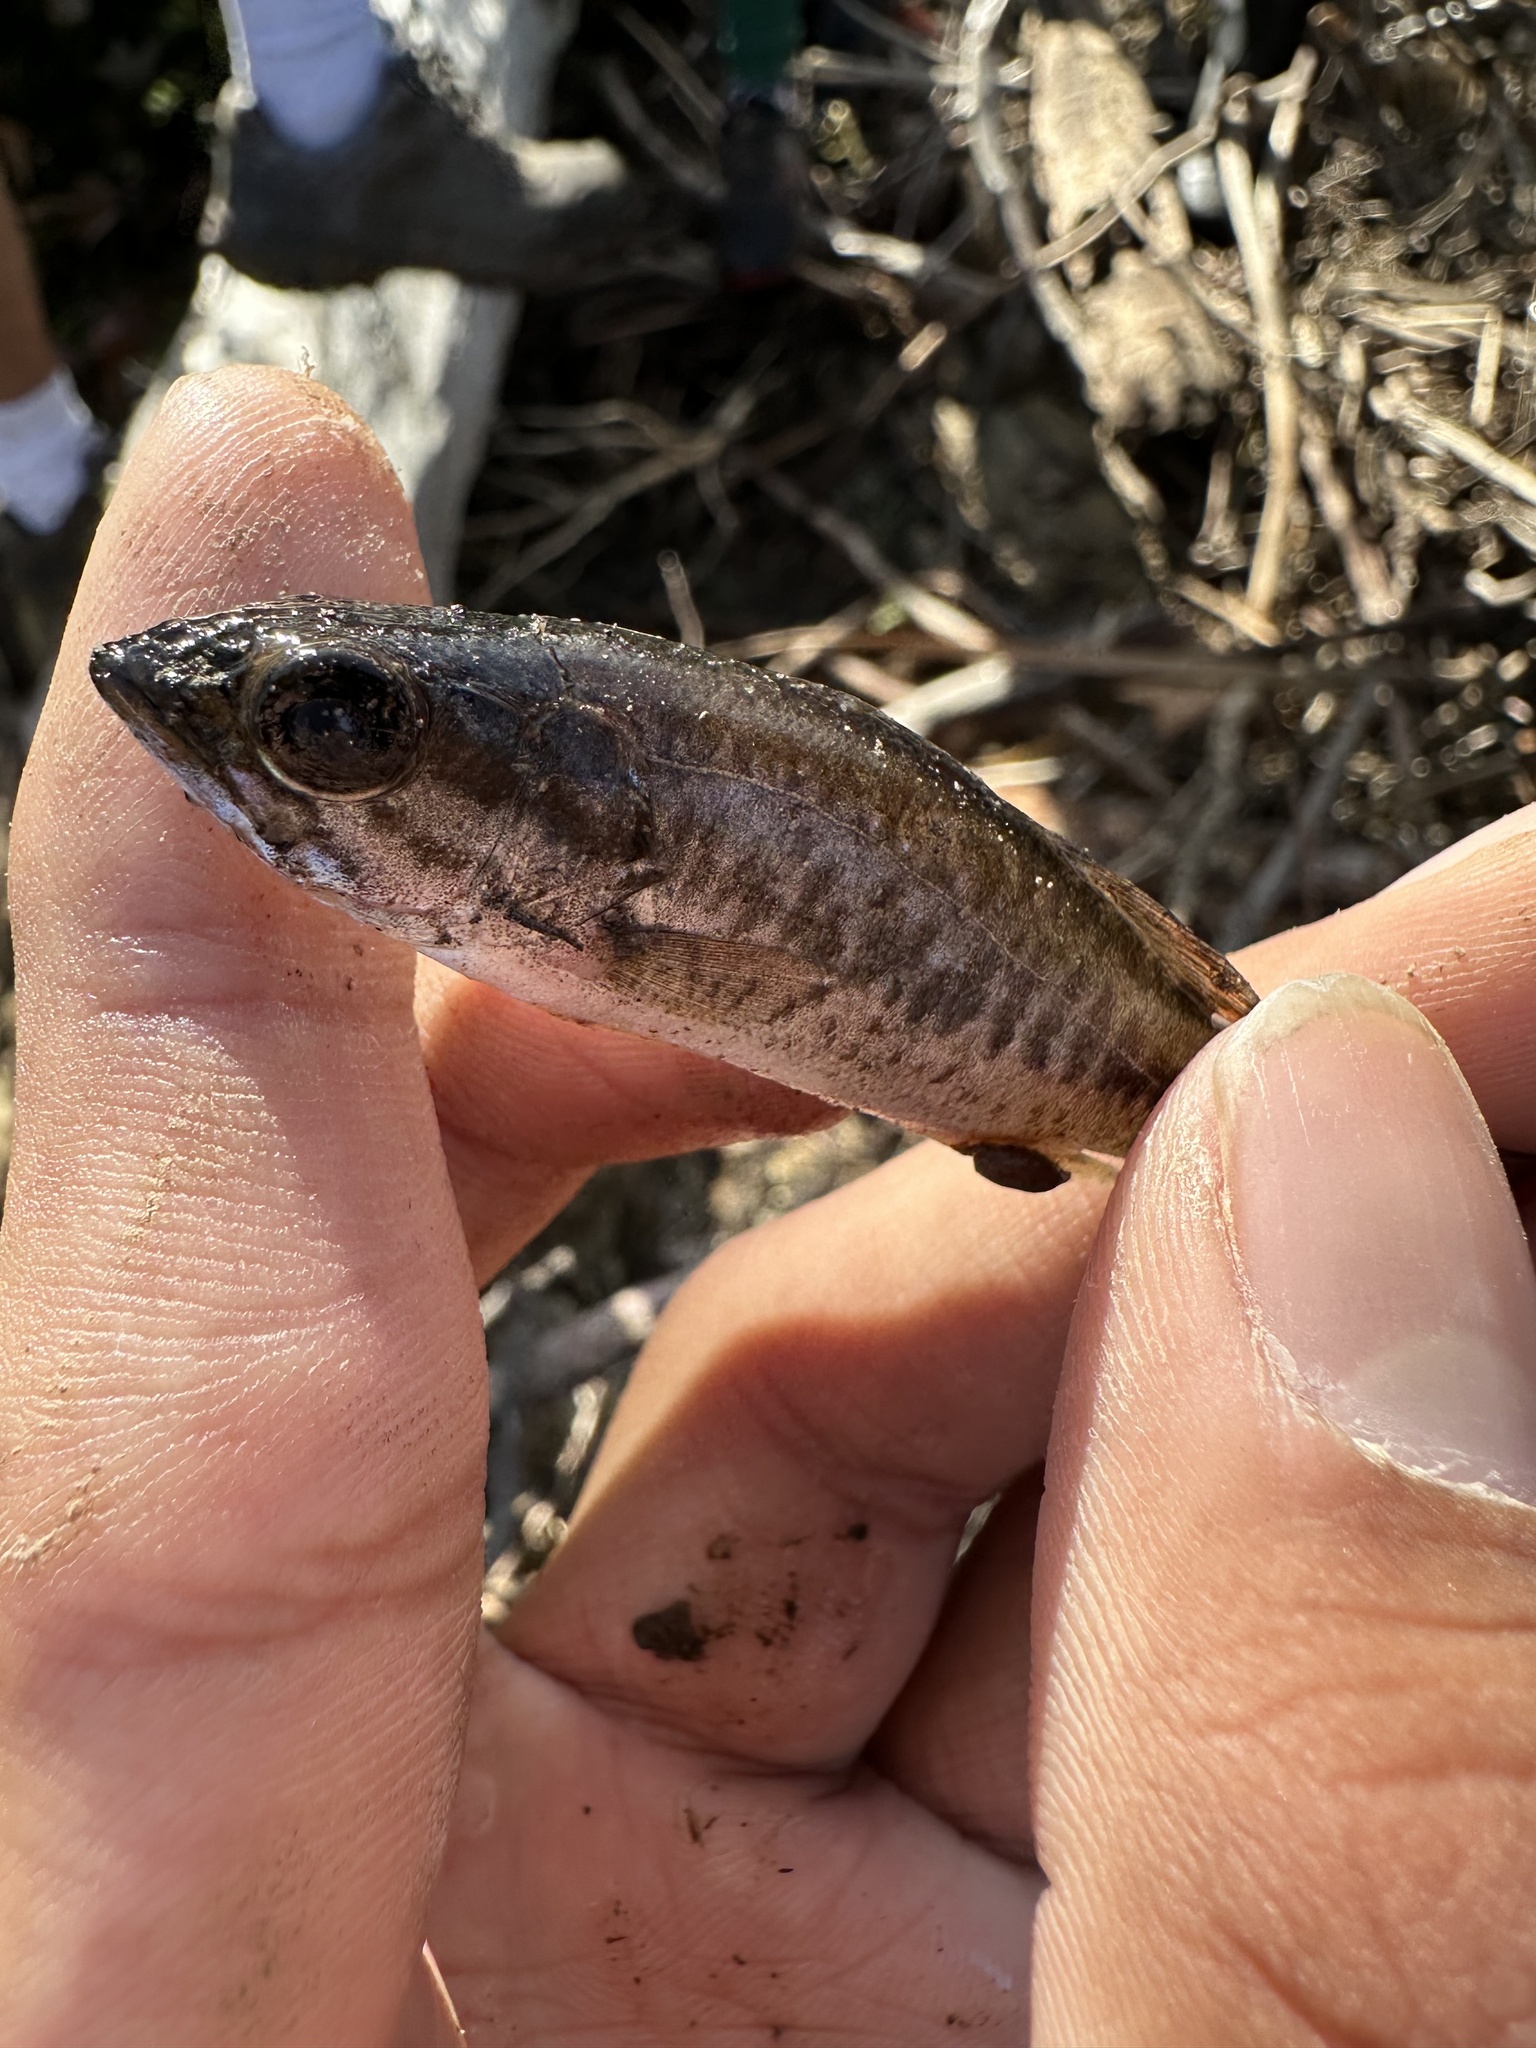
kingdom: Animalia
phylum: Chordata
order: Perciformes
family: Centrarchidae
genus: Micropterus
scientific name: Micropterus
